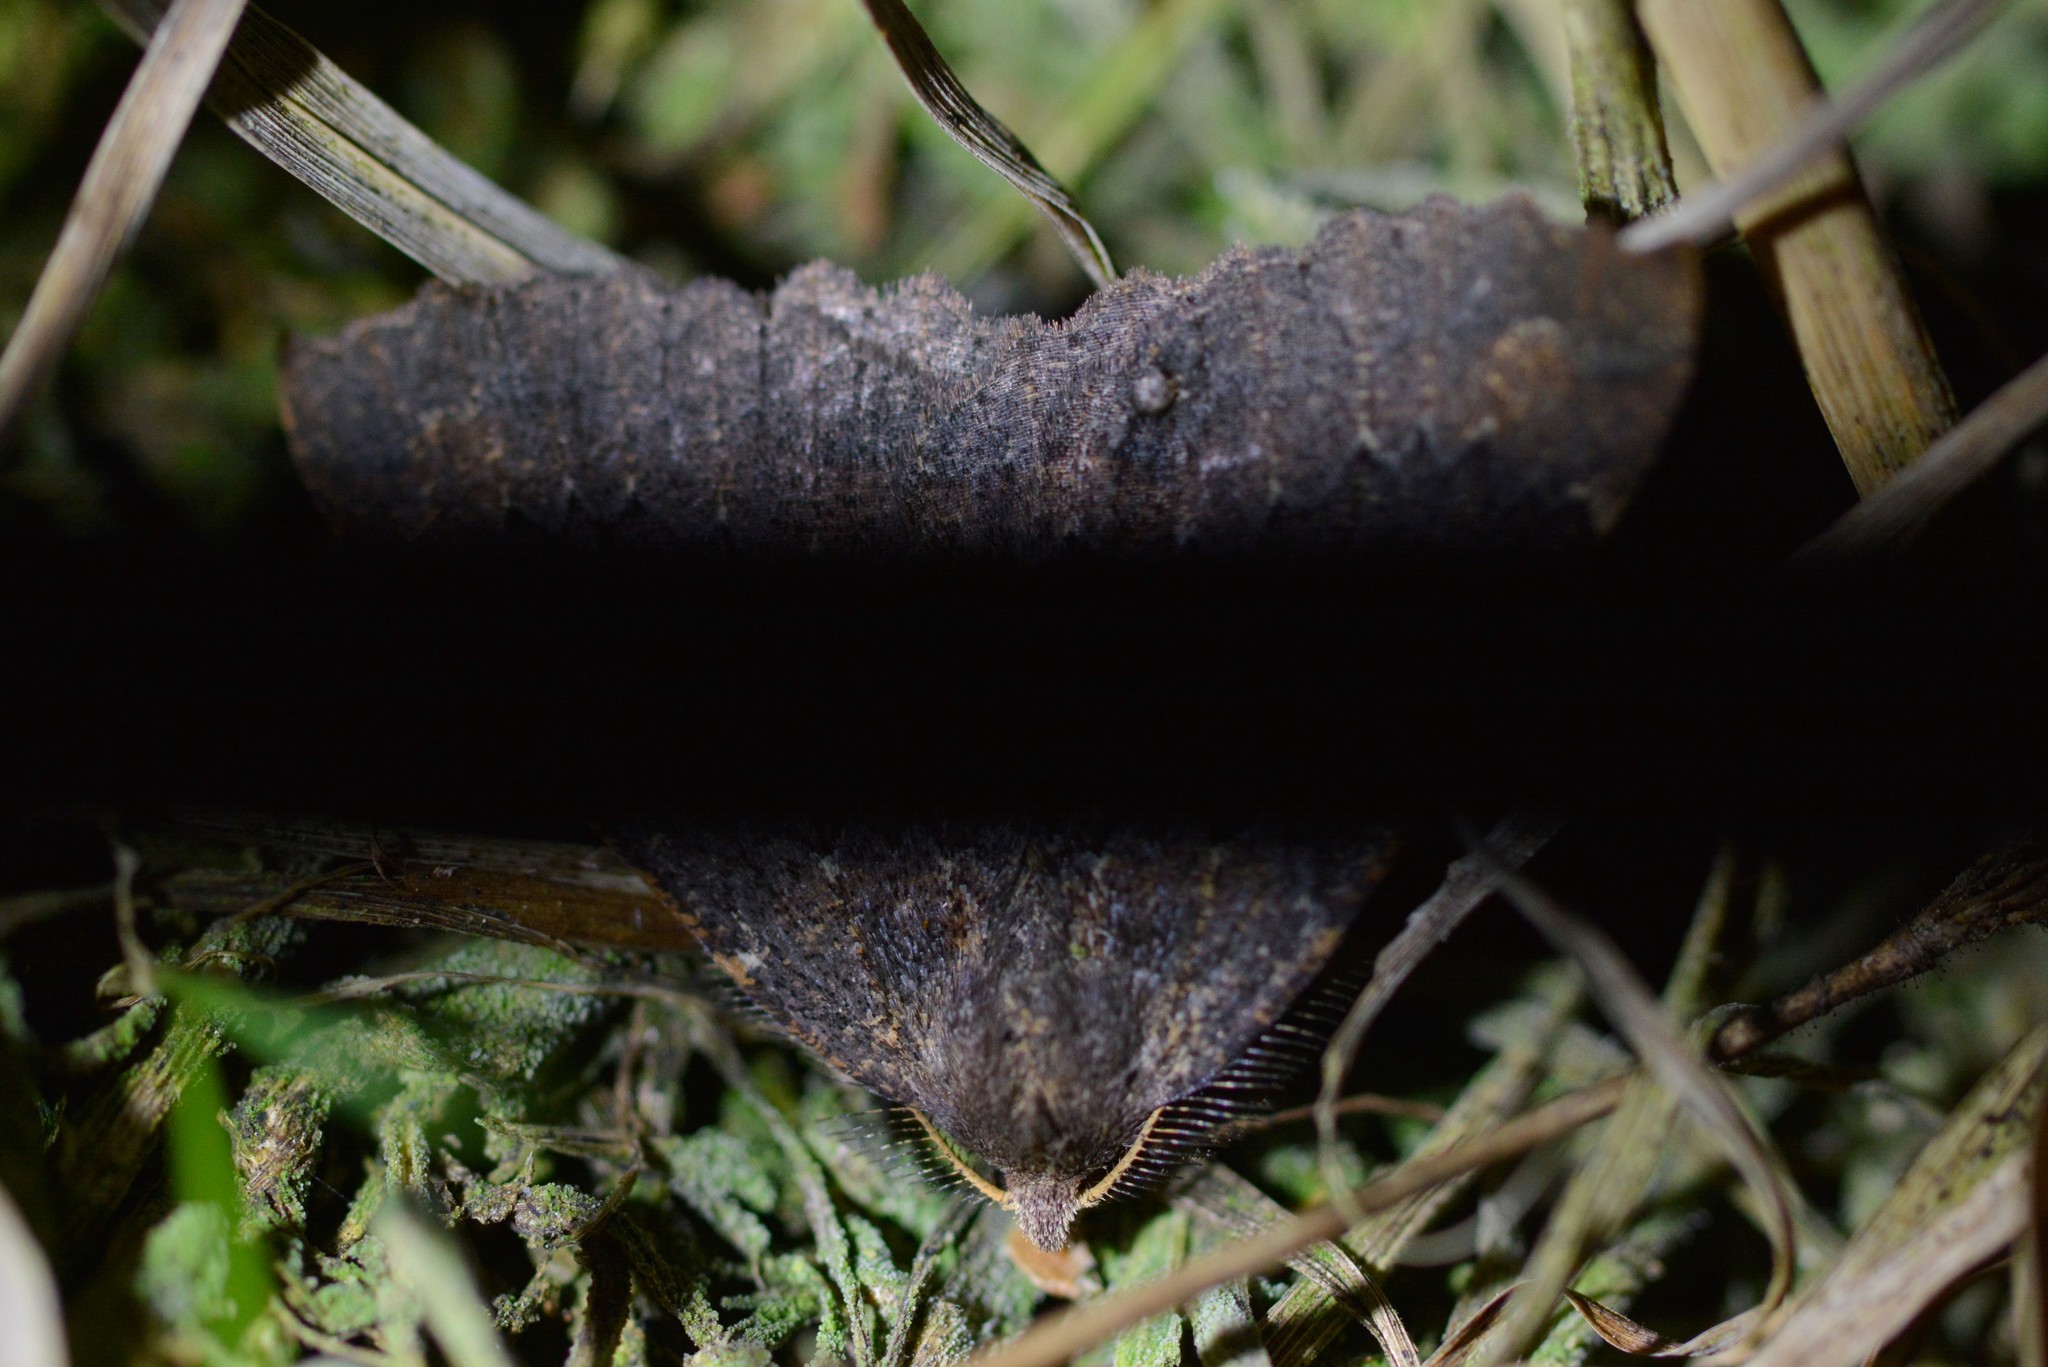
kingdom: Animalia
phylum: Arthropoda
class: Insecta
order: Lepidoptera
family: Geometridae
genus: Cleora
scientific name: Cleora scriptaria
